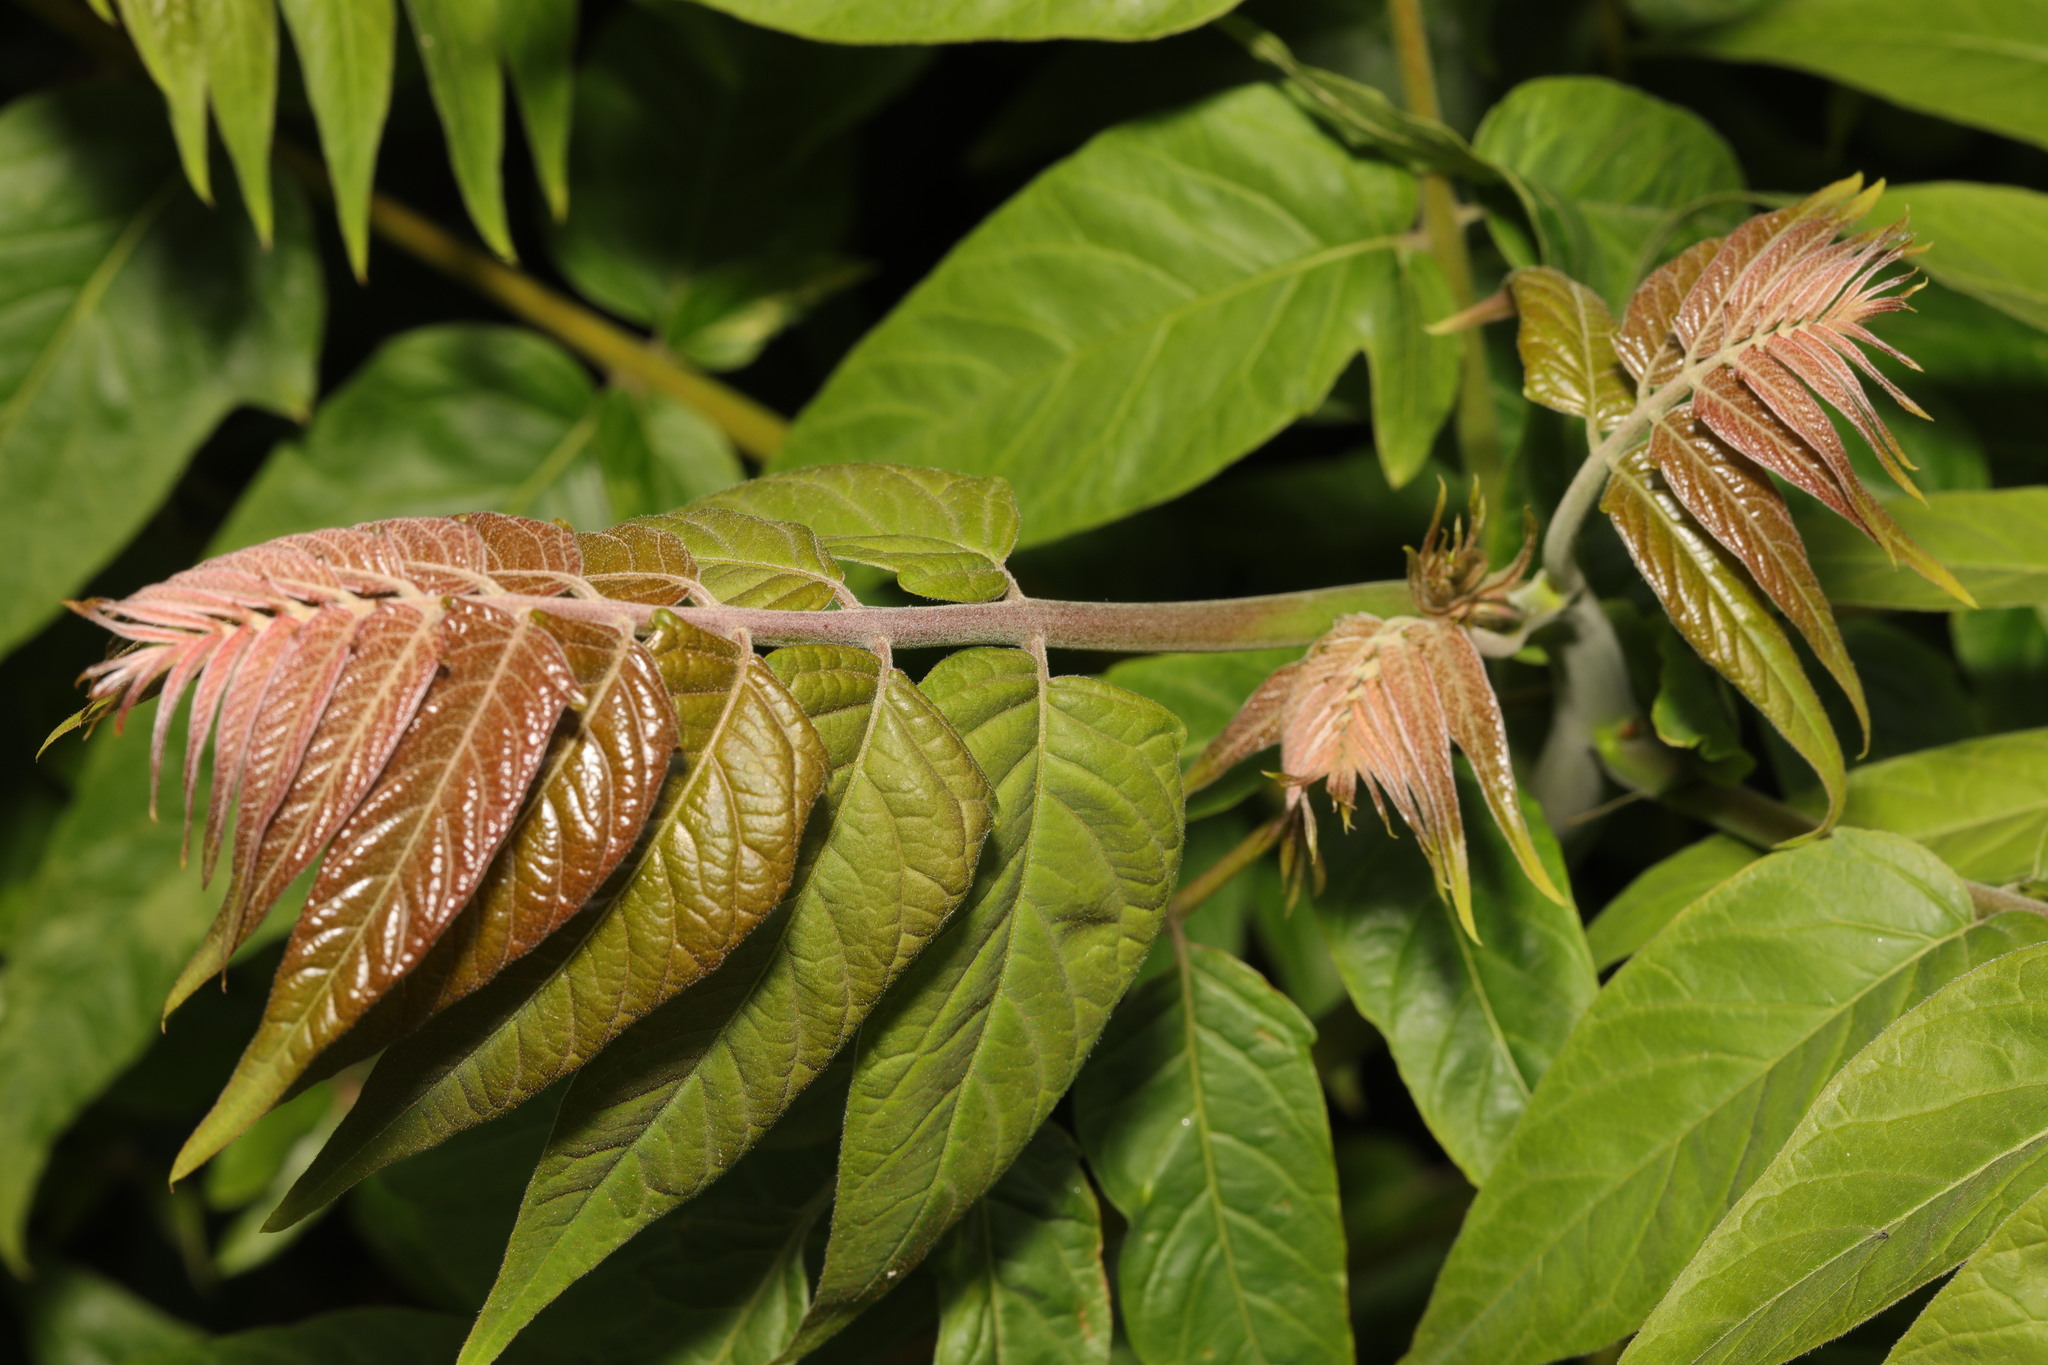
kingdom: Plantae
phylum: Tracheophyta
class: Magnoliopsida
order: Sapindales
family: Anacardiaceae
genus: Rhus
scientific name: Rhus typhina
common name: Staghorn sumac
